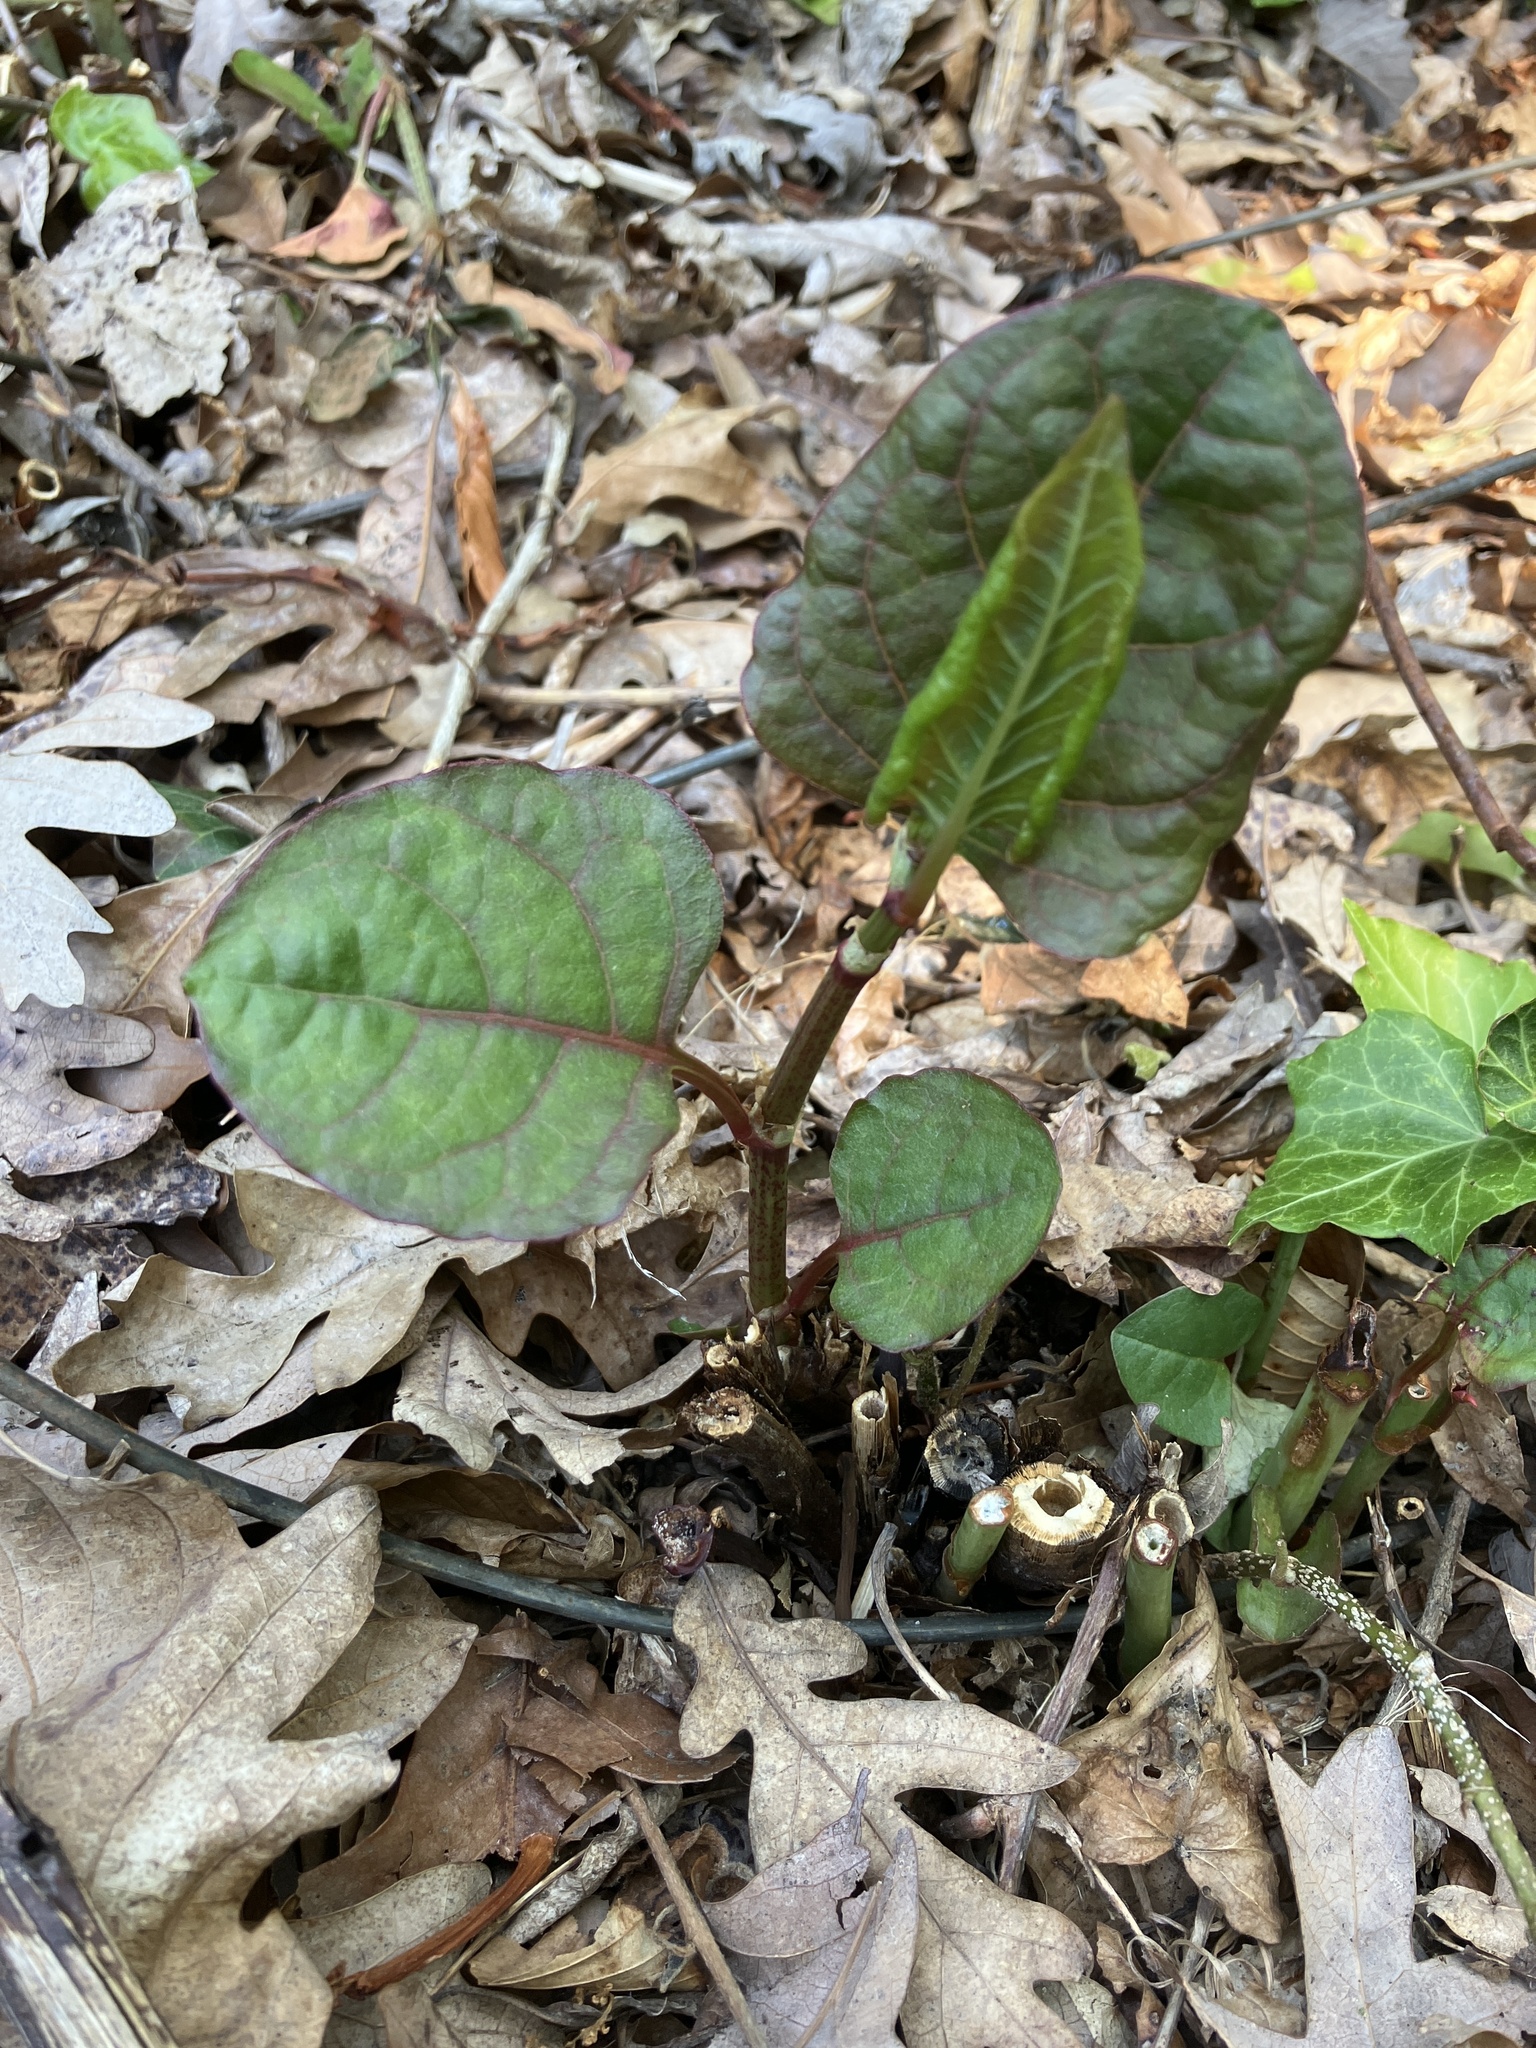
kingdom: Plantae
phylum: Tracheophyta
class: Magnoliopsida
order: Caryophyllales
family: Polygonaceae
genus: Reynoutria
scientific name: Reynoutria japonica
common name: Japanese knotweed
